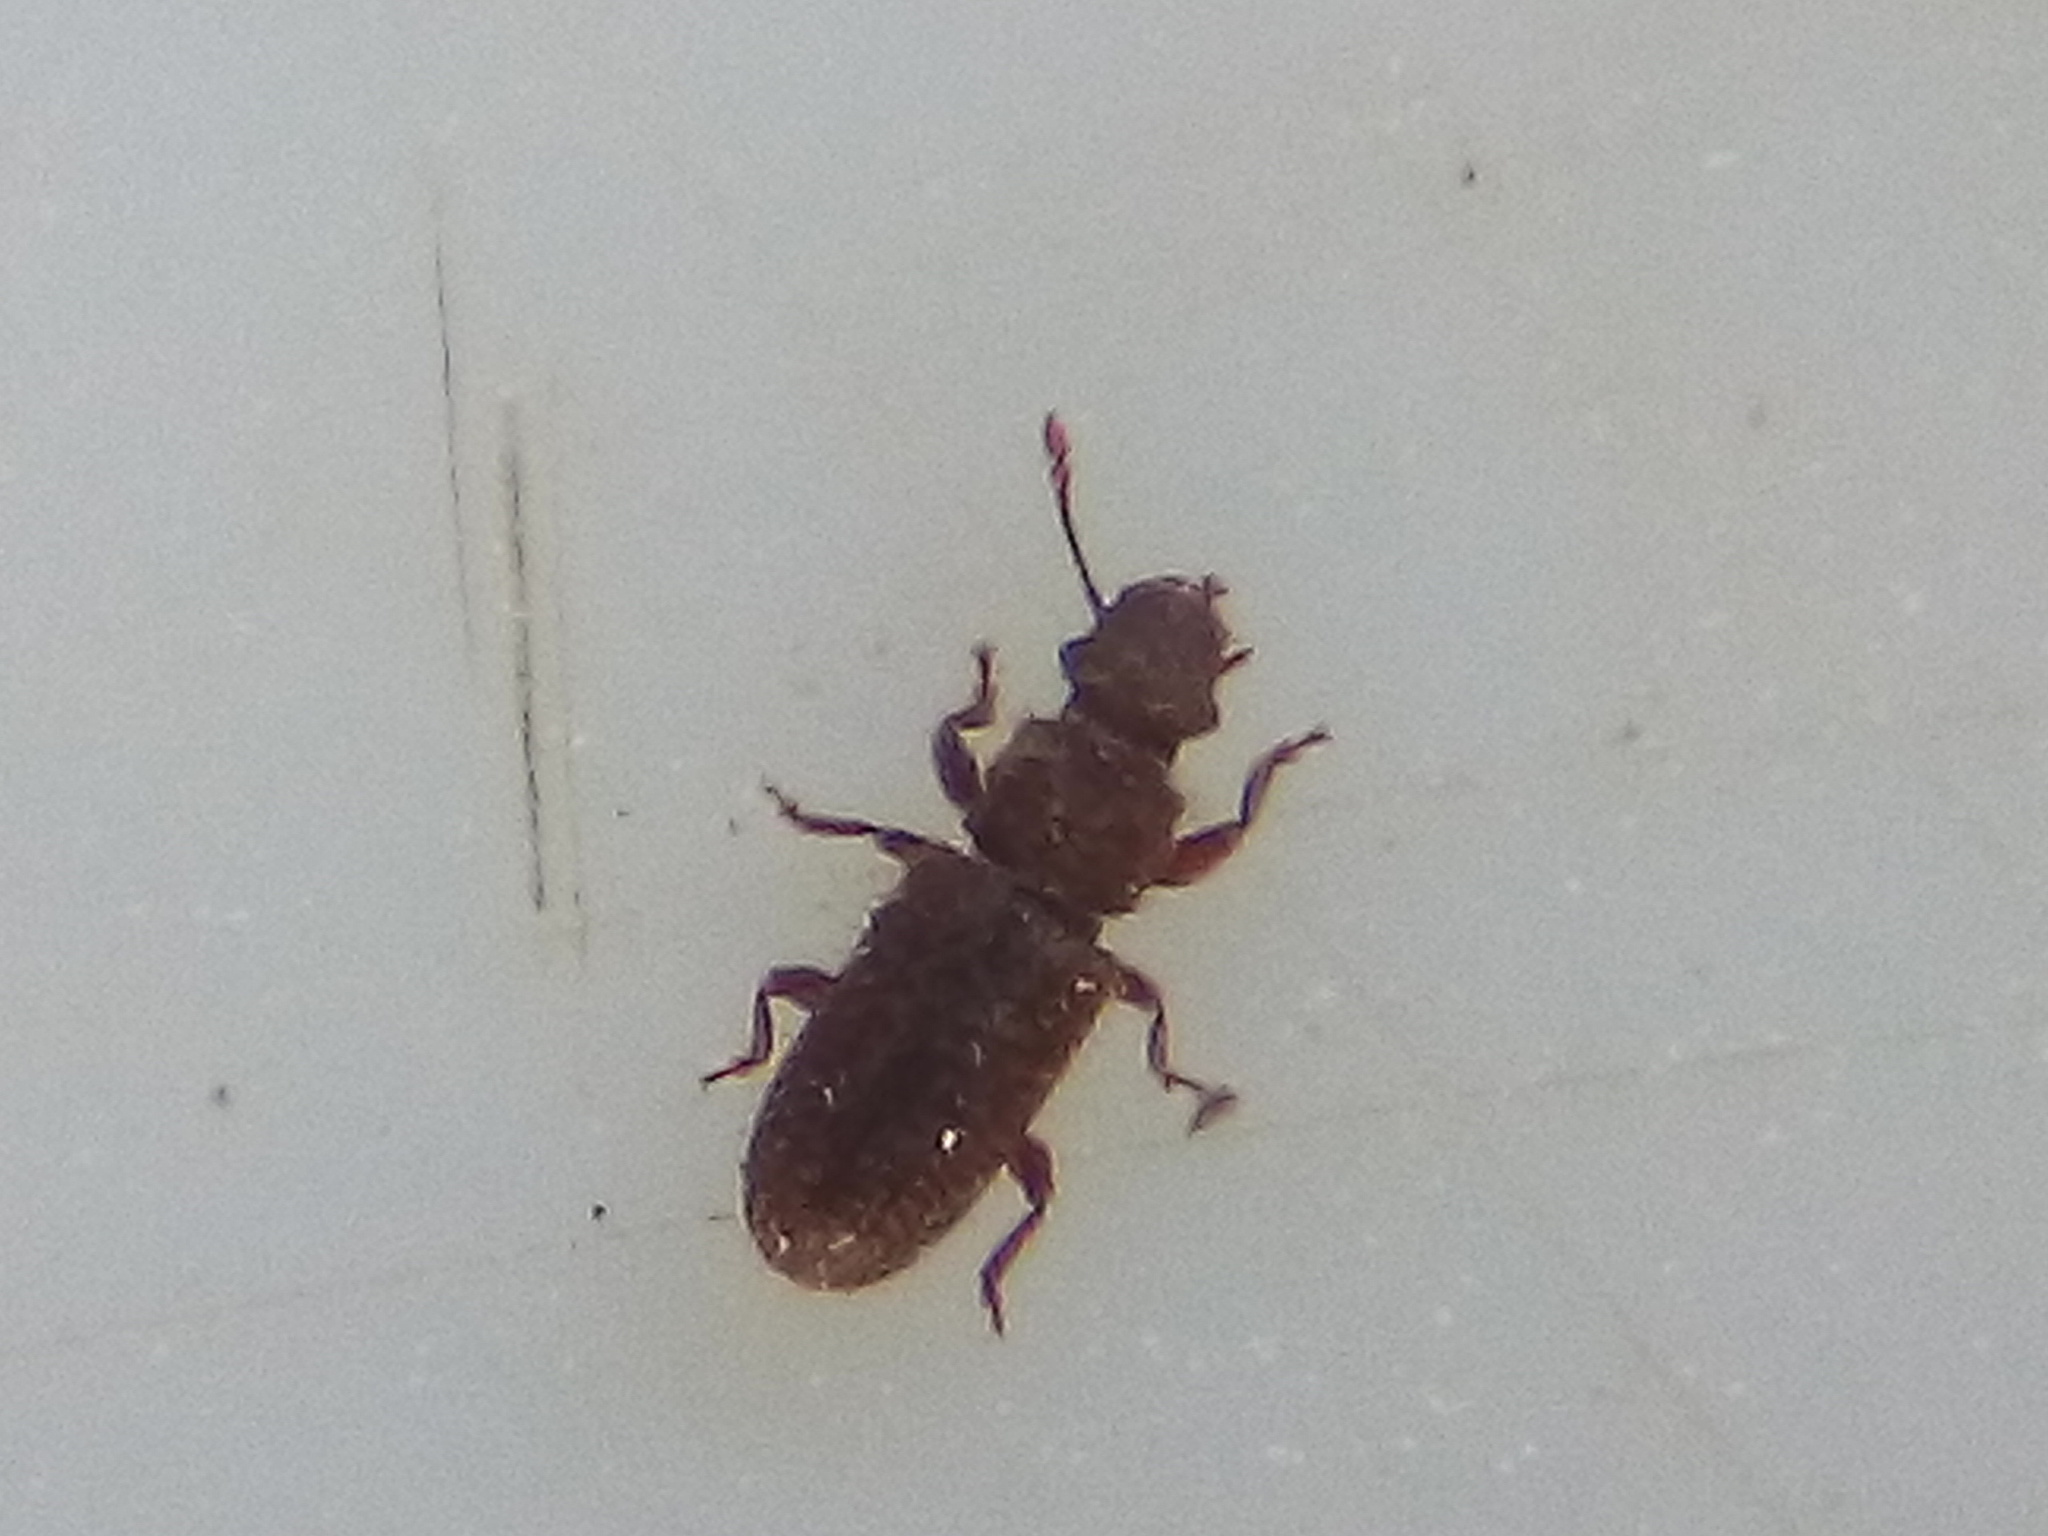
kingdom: Animalia
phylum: Arthropoda
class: Insecta
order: Coleoptera
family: Belidae
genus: Aralius
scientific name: Aralius wollastoni
